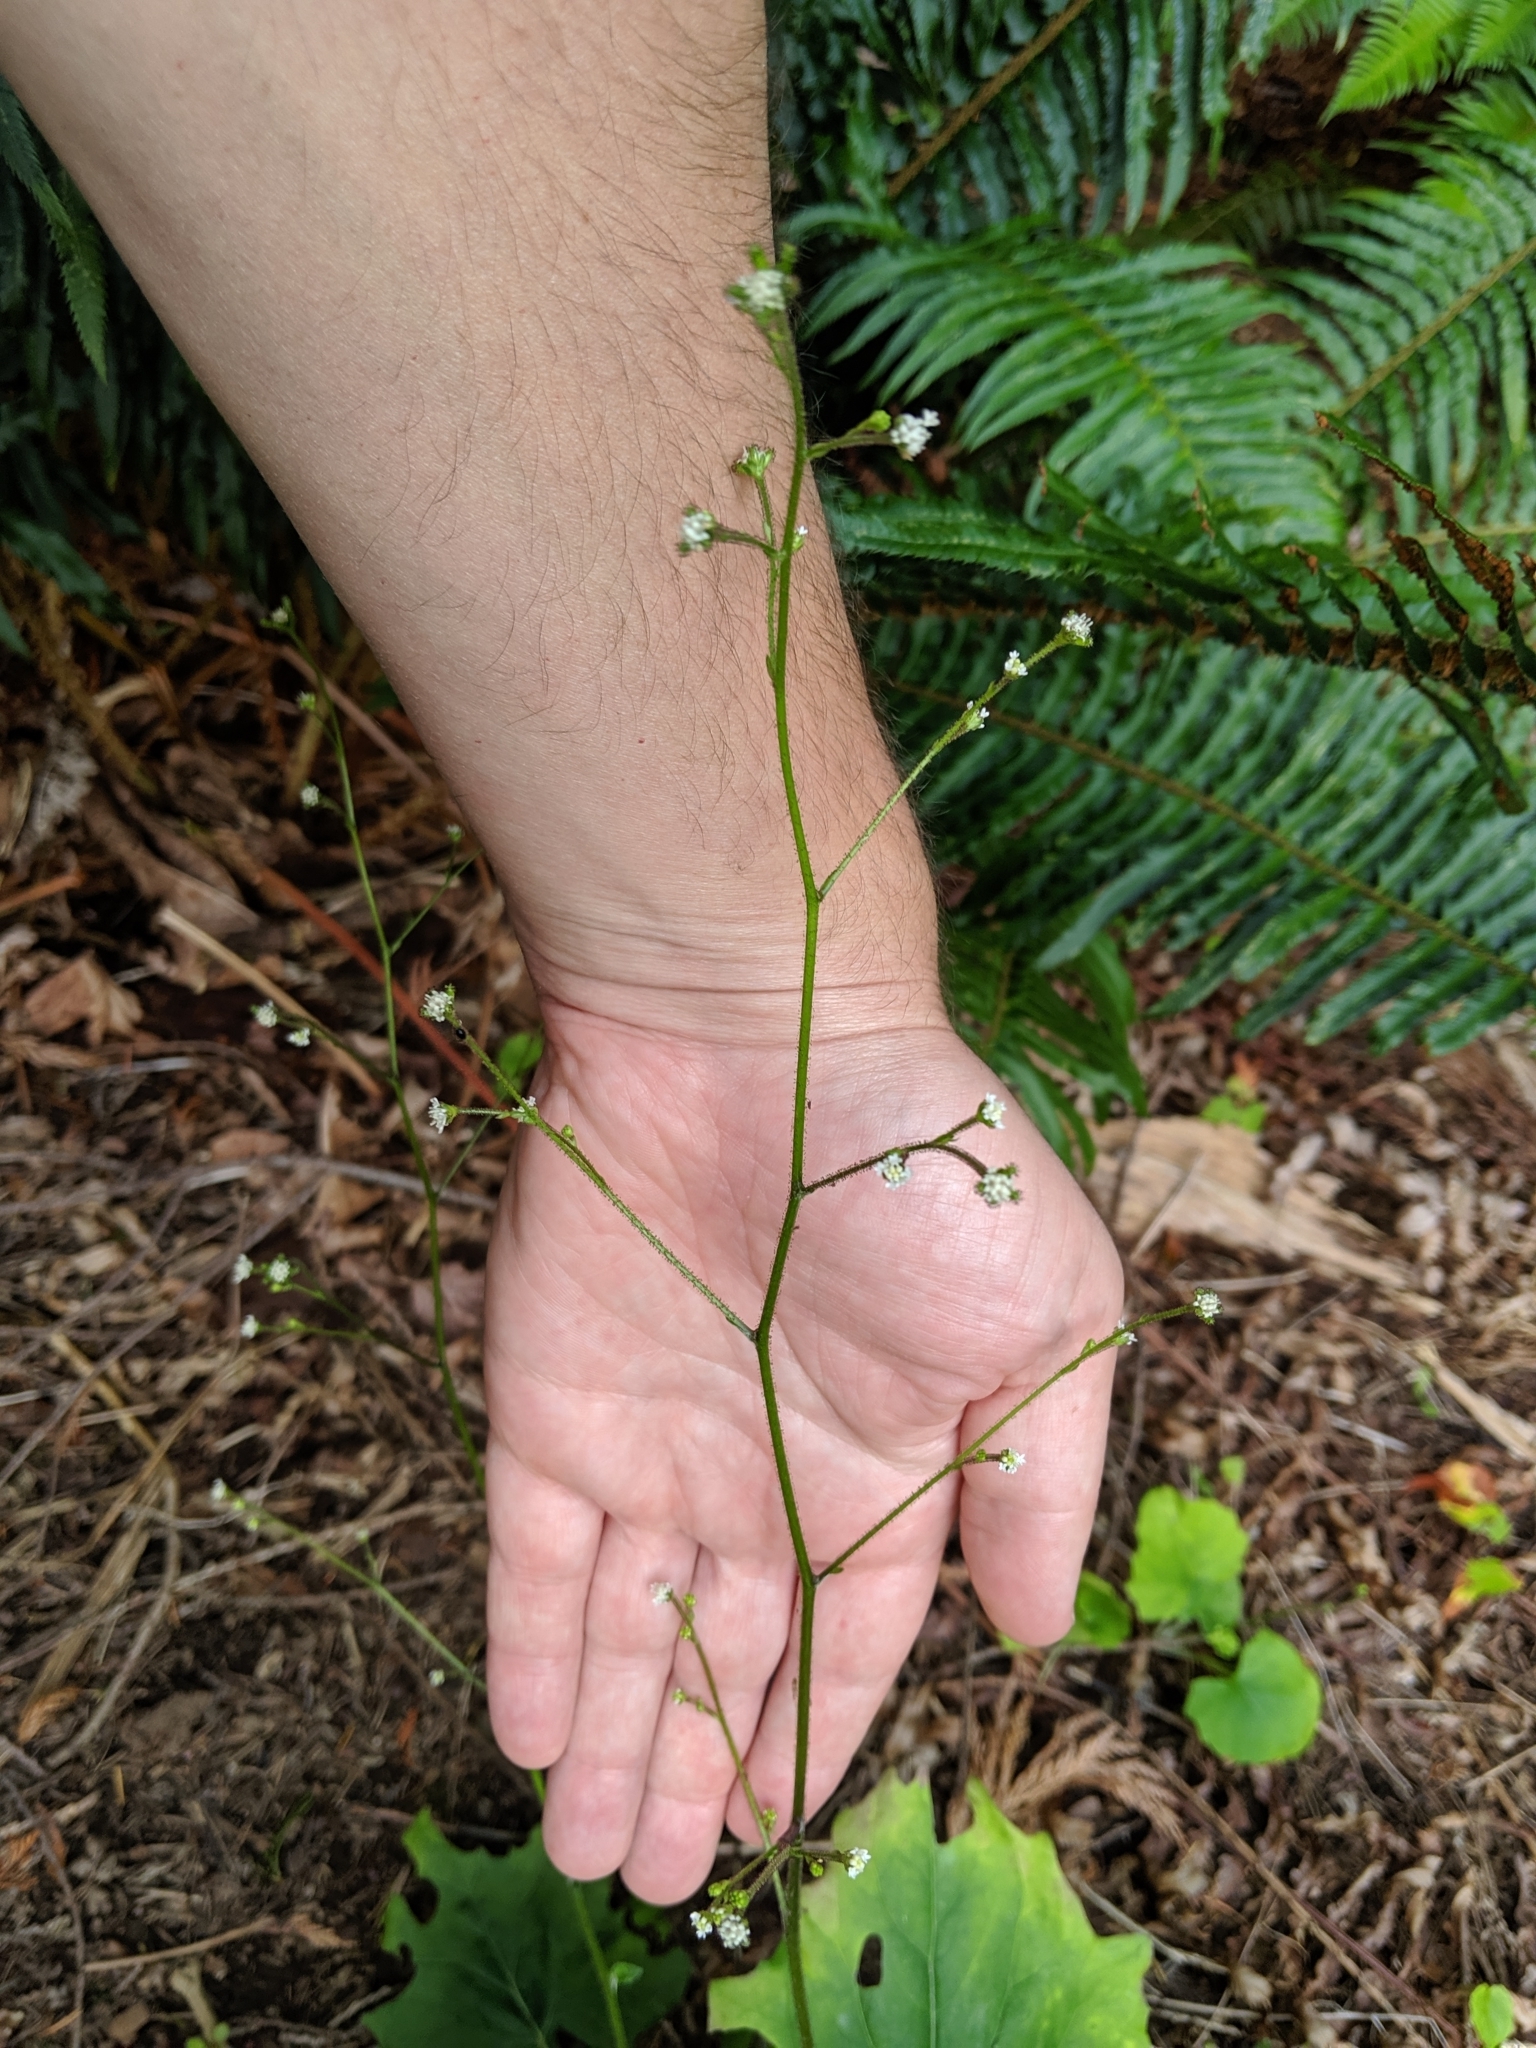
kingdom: Plantae
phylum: Tracheophyta
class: Magnoliopsida
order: Asterales
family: Asteraceae
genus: Adenocaulon
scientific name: Adenocaulon bicolor
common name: Trailplant
